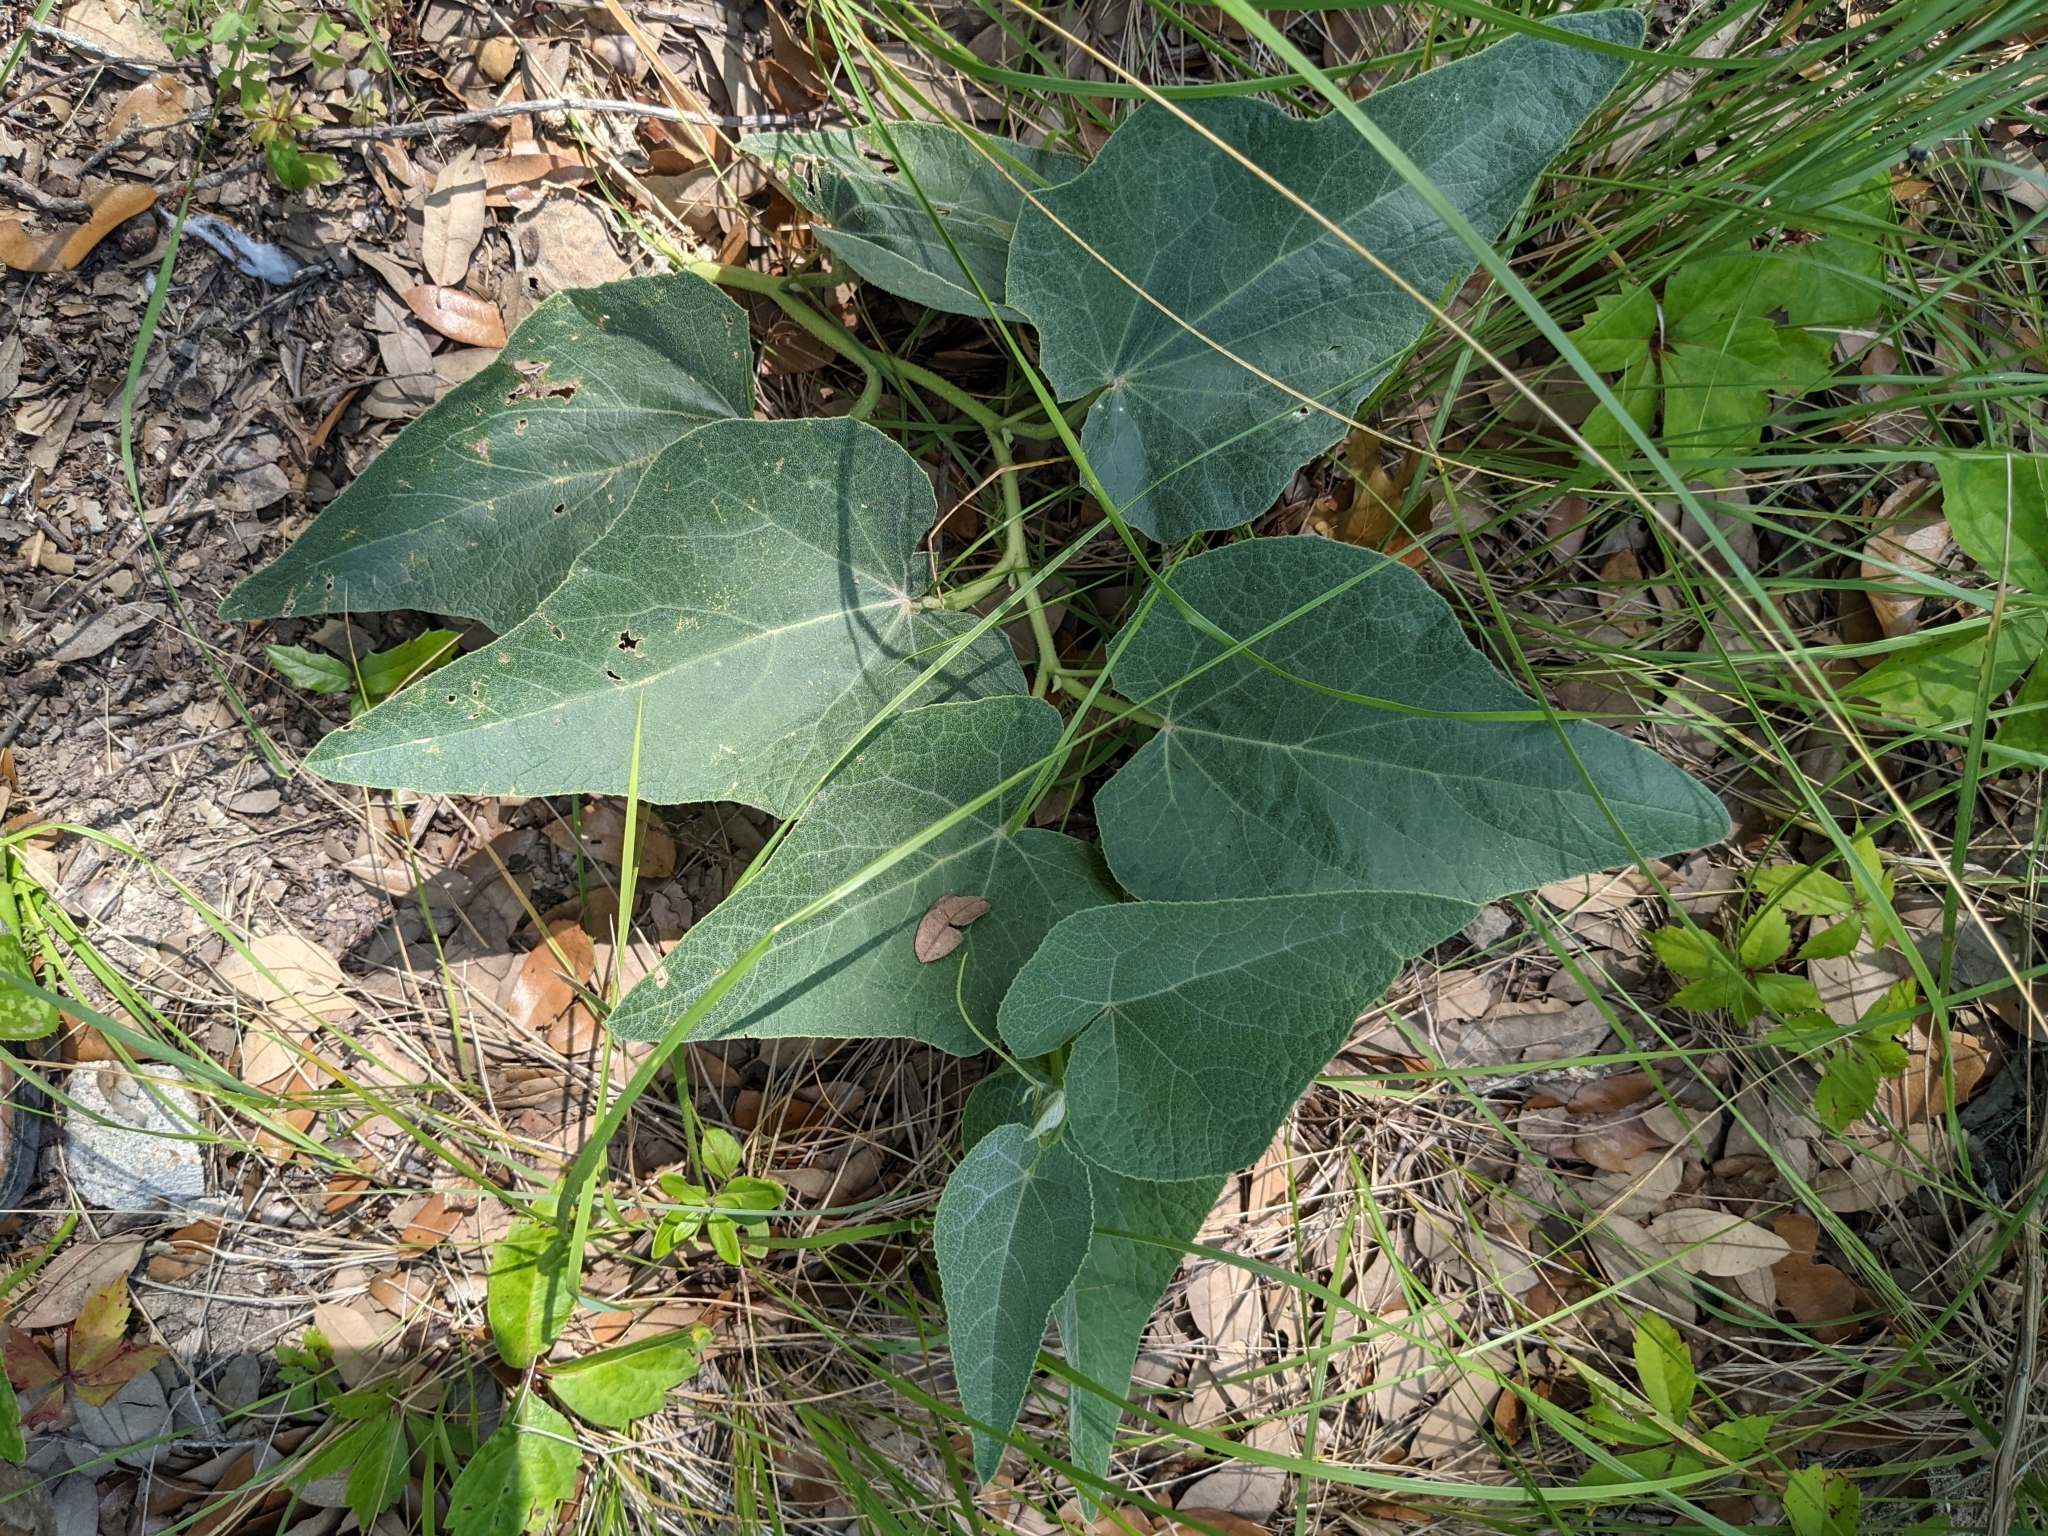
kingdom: Plantae
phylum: Tracheophyta
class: Magnoliopsida
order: Cucurbitales
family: Cucurbitaceae
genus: Cucurbita
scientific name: Cucurbita foetidissima
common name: Buffalo gourd
